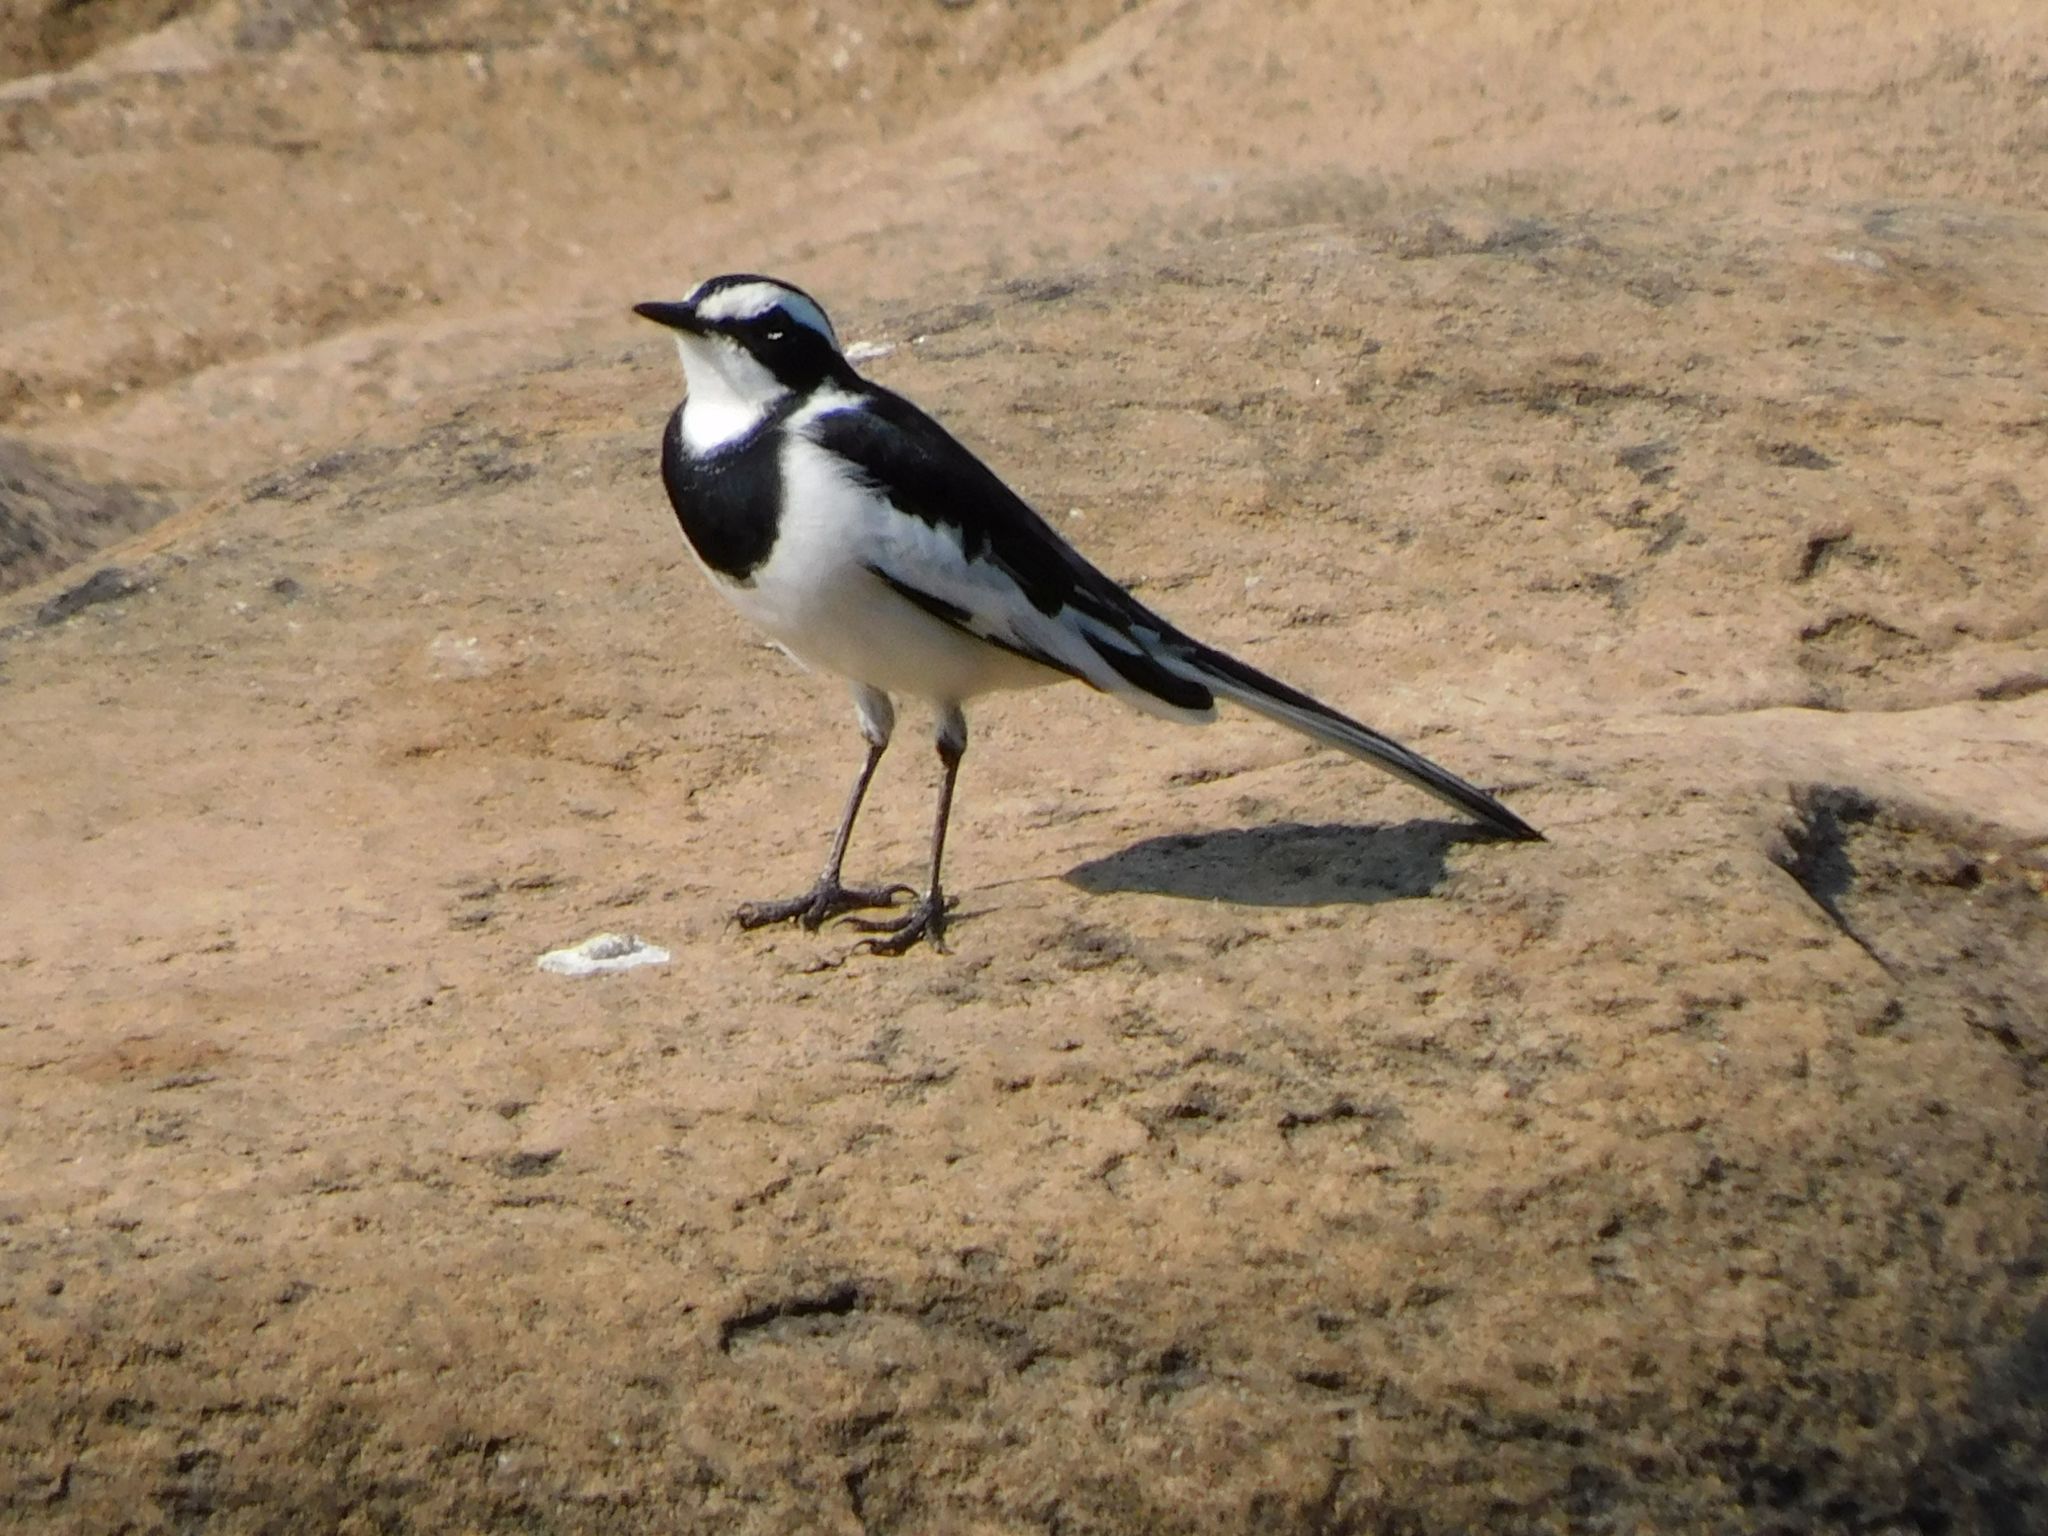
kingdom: Animalia
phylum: Chordata
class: Aves
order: Passeriformes
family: Motacillidae
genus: Motacilla
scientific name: Motacilla aguimp
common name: African pied wagtail
